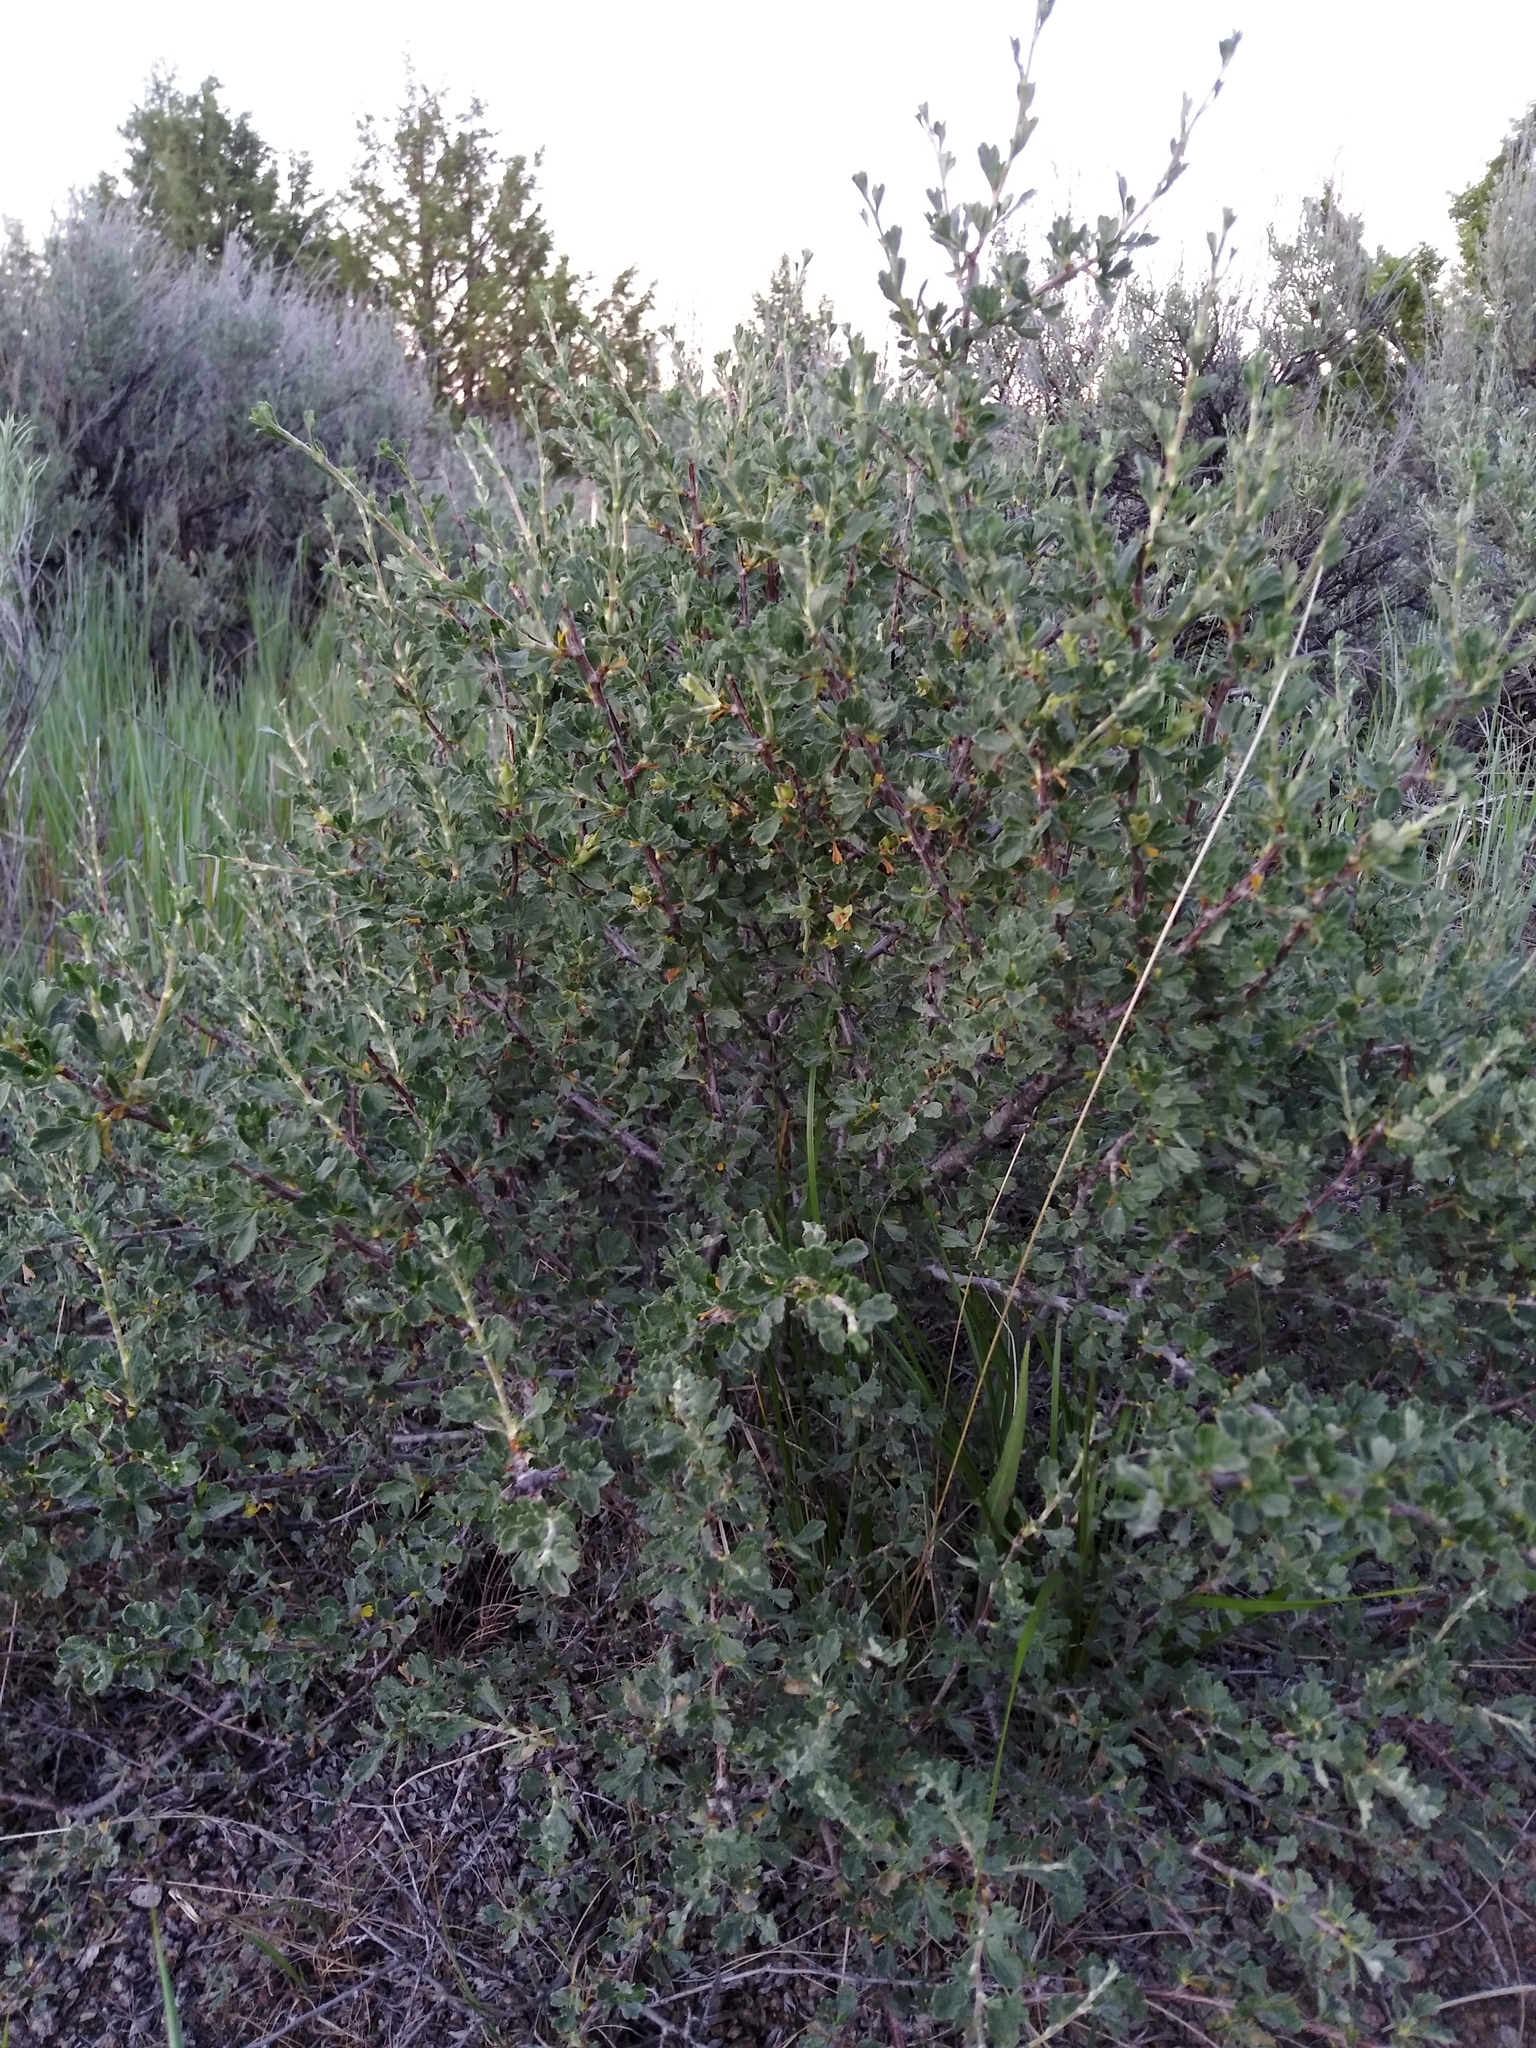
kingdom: Plantae
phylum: Tracheophyta
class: Magnoliopsida
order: Rosales
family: Rosaceae
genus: Purshia
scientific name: Purshia tridentata
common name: Antelope bitterbrush
